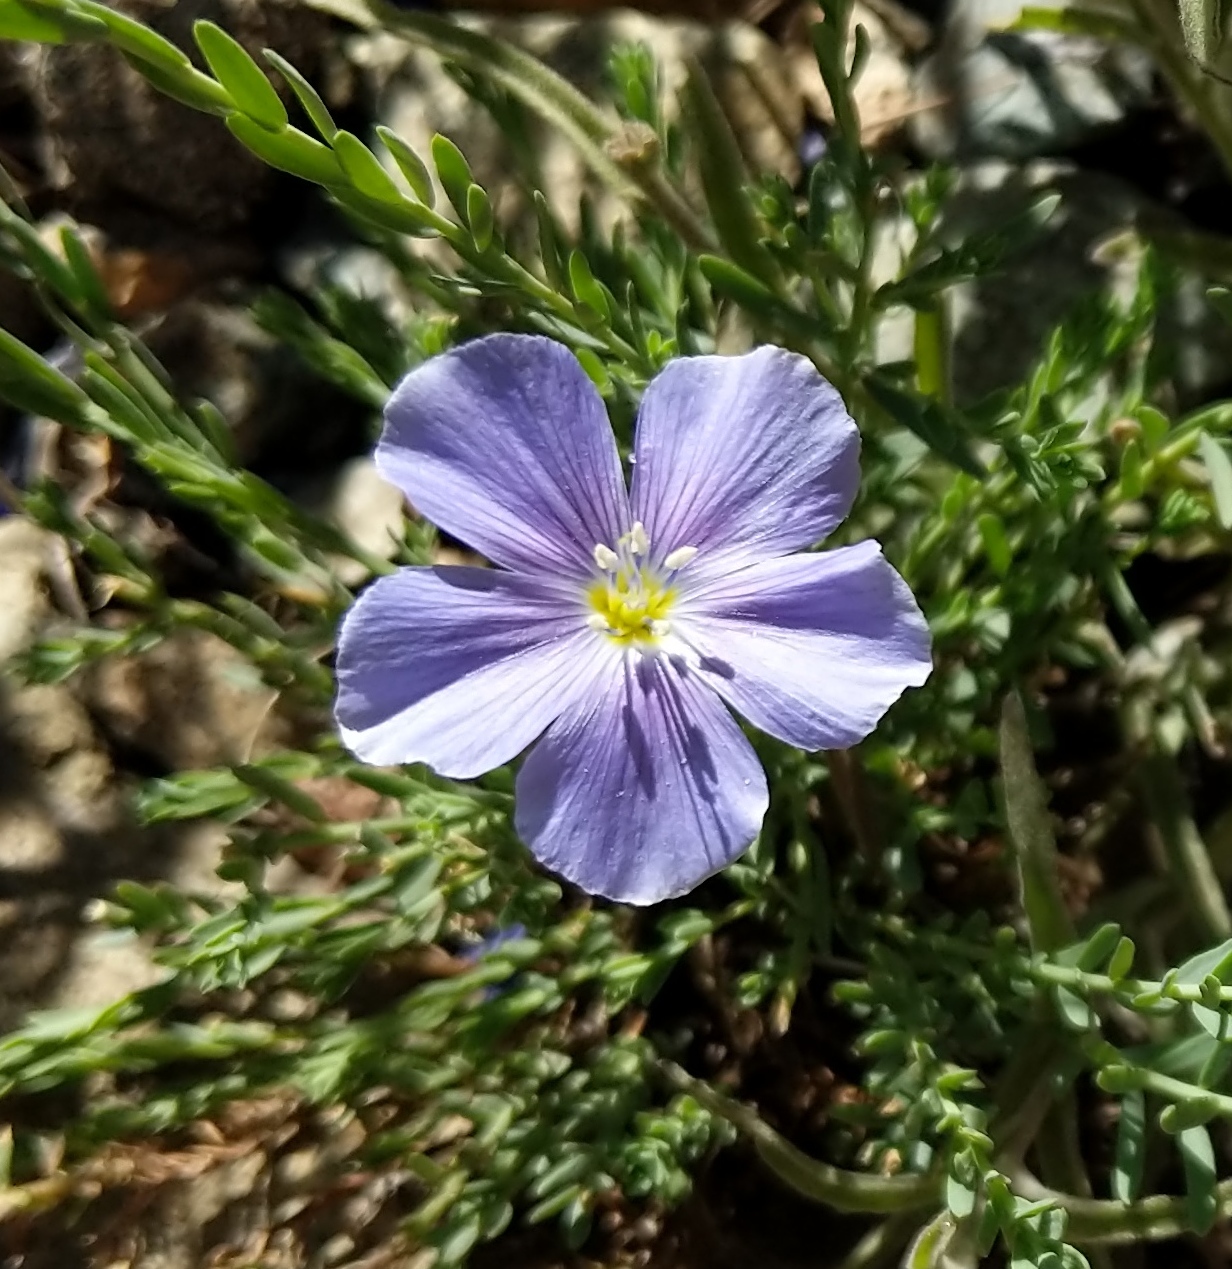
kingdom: Plantae
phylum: Tracheophyta
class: Magnoliopsida
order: Malpighiales
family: Linaceae
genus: Linum
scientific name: Linum lewisii
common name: Prairie flax
